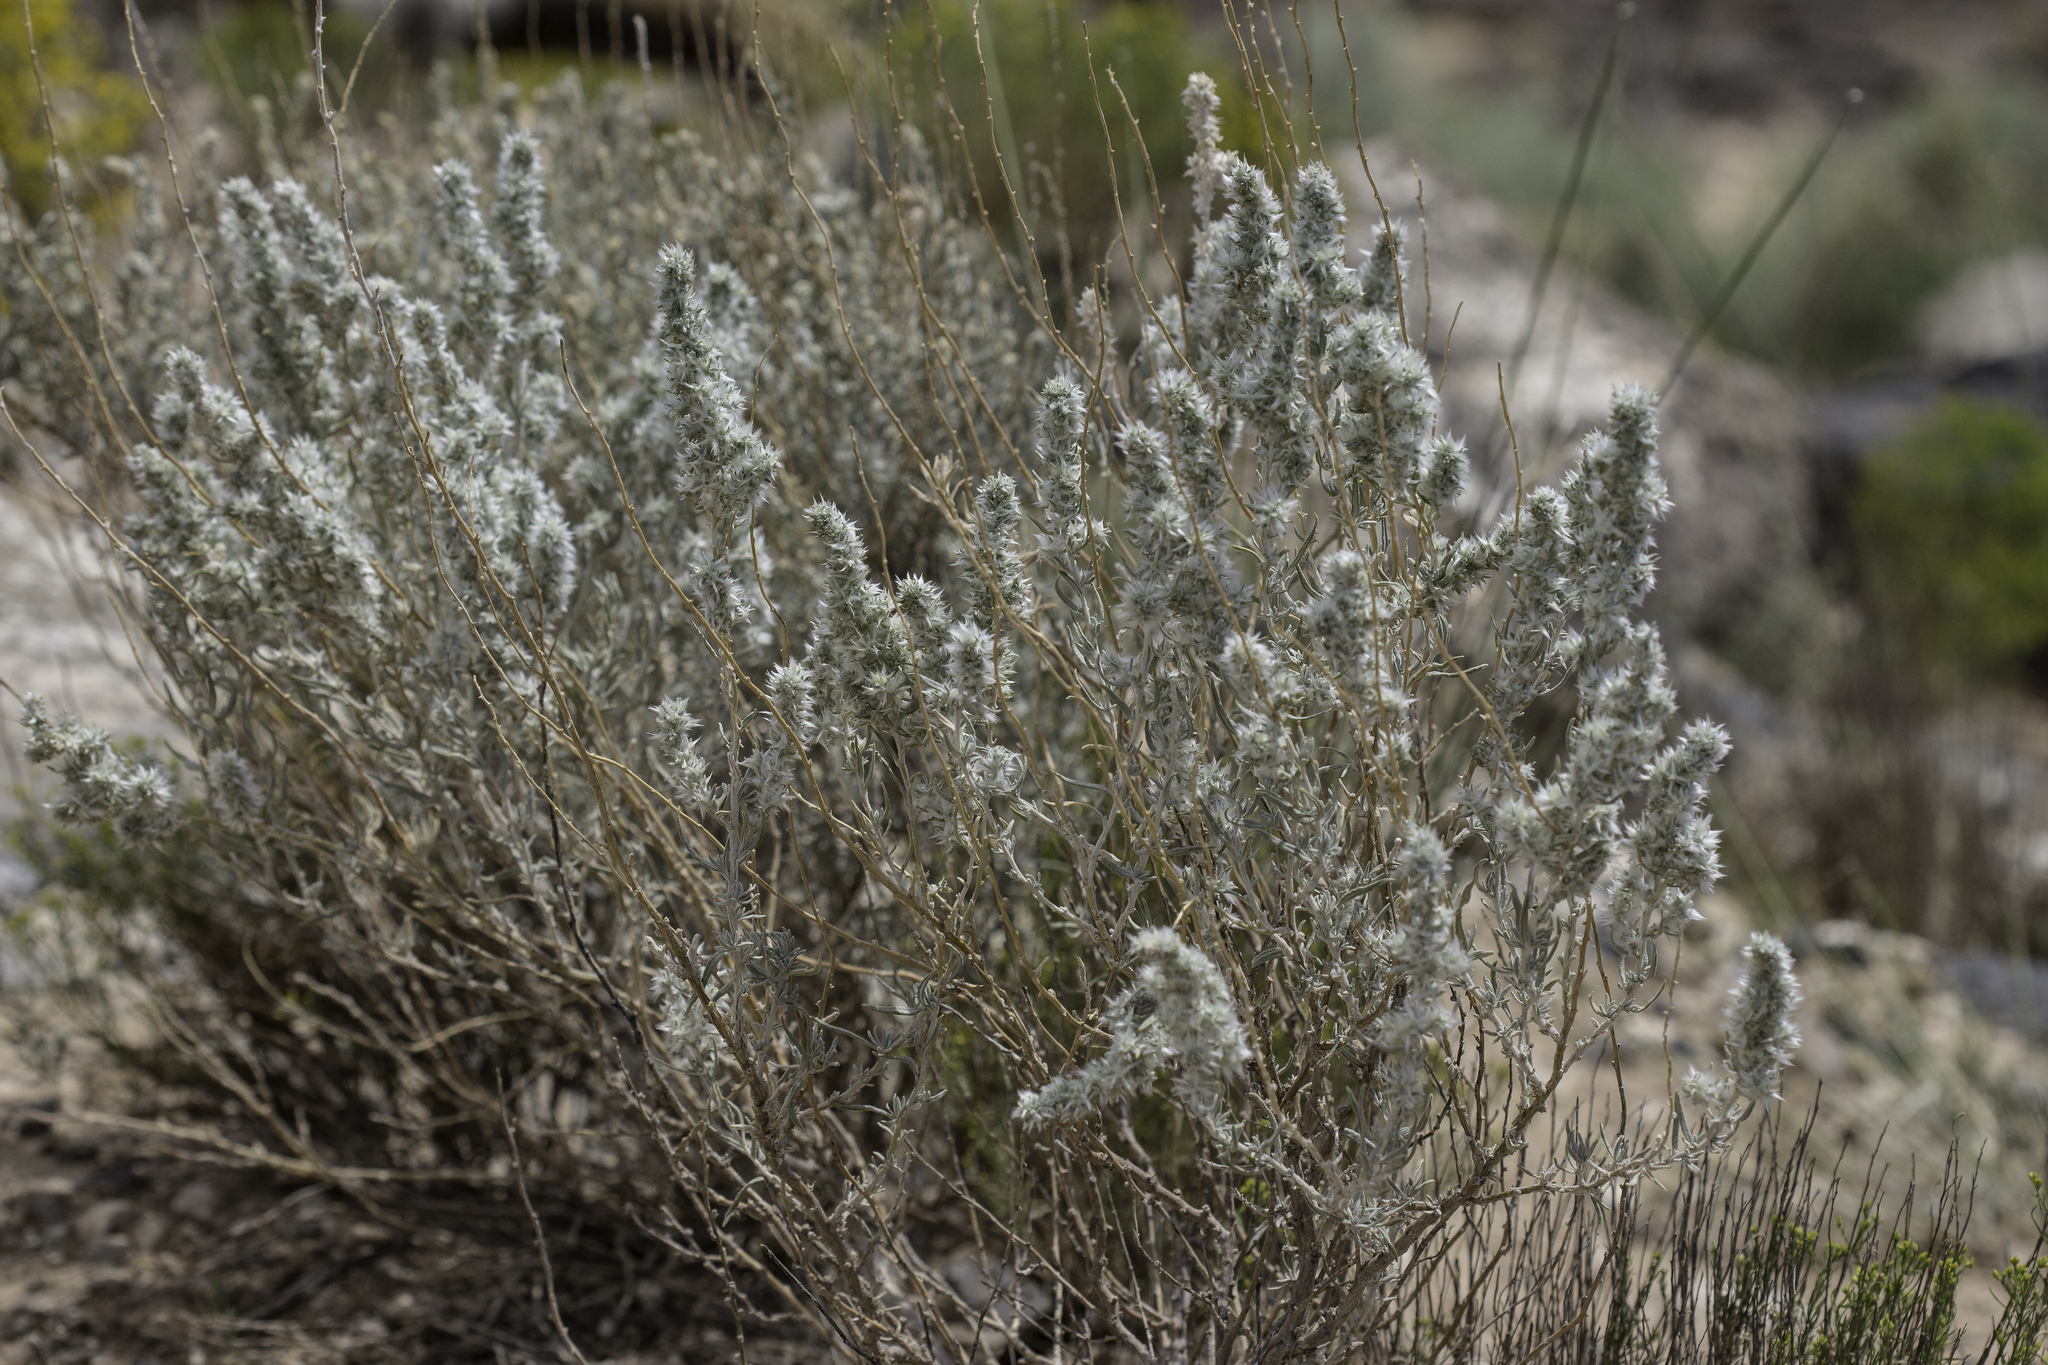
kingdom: Plantae
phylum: Tracheophyta
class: Magnoliopsida
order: Caryophyllales
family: Amaranthaceae
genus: Krascheninnikovia
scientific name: Krascheninnikovia lanata
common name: Winterfat
